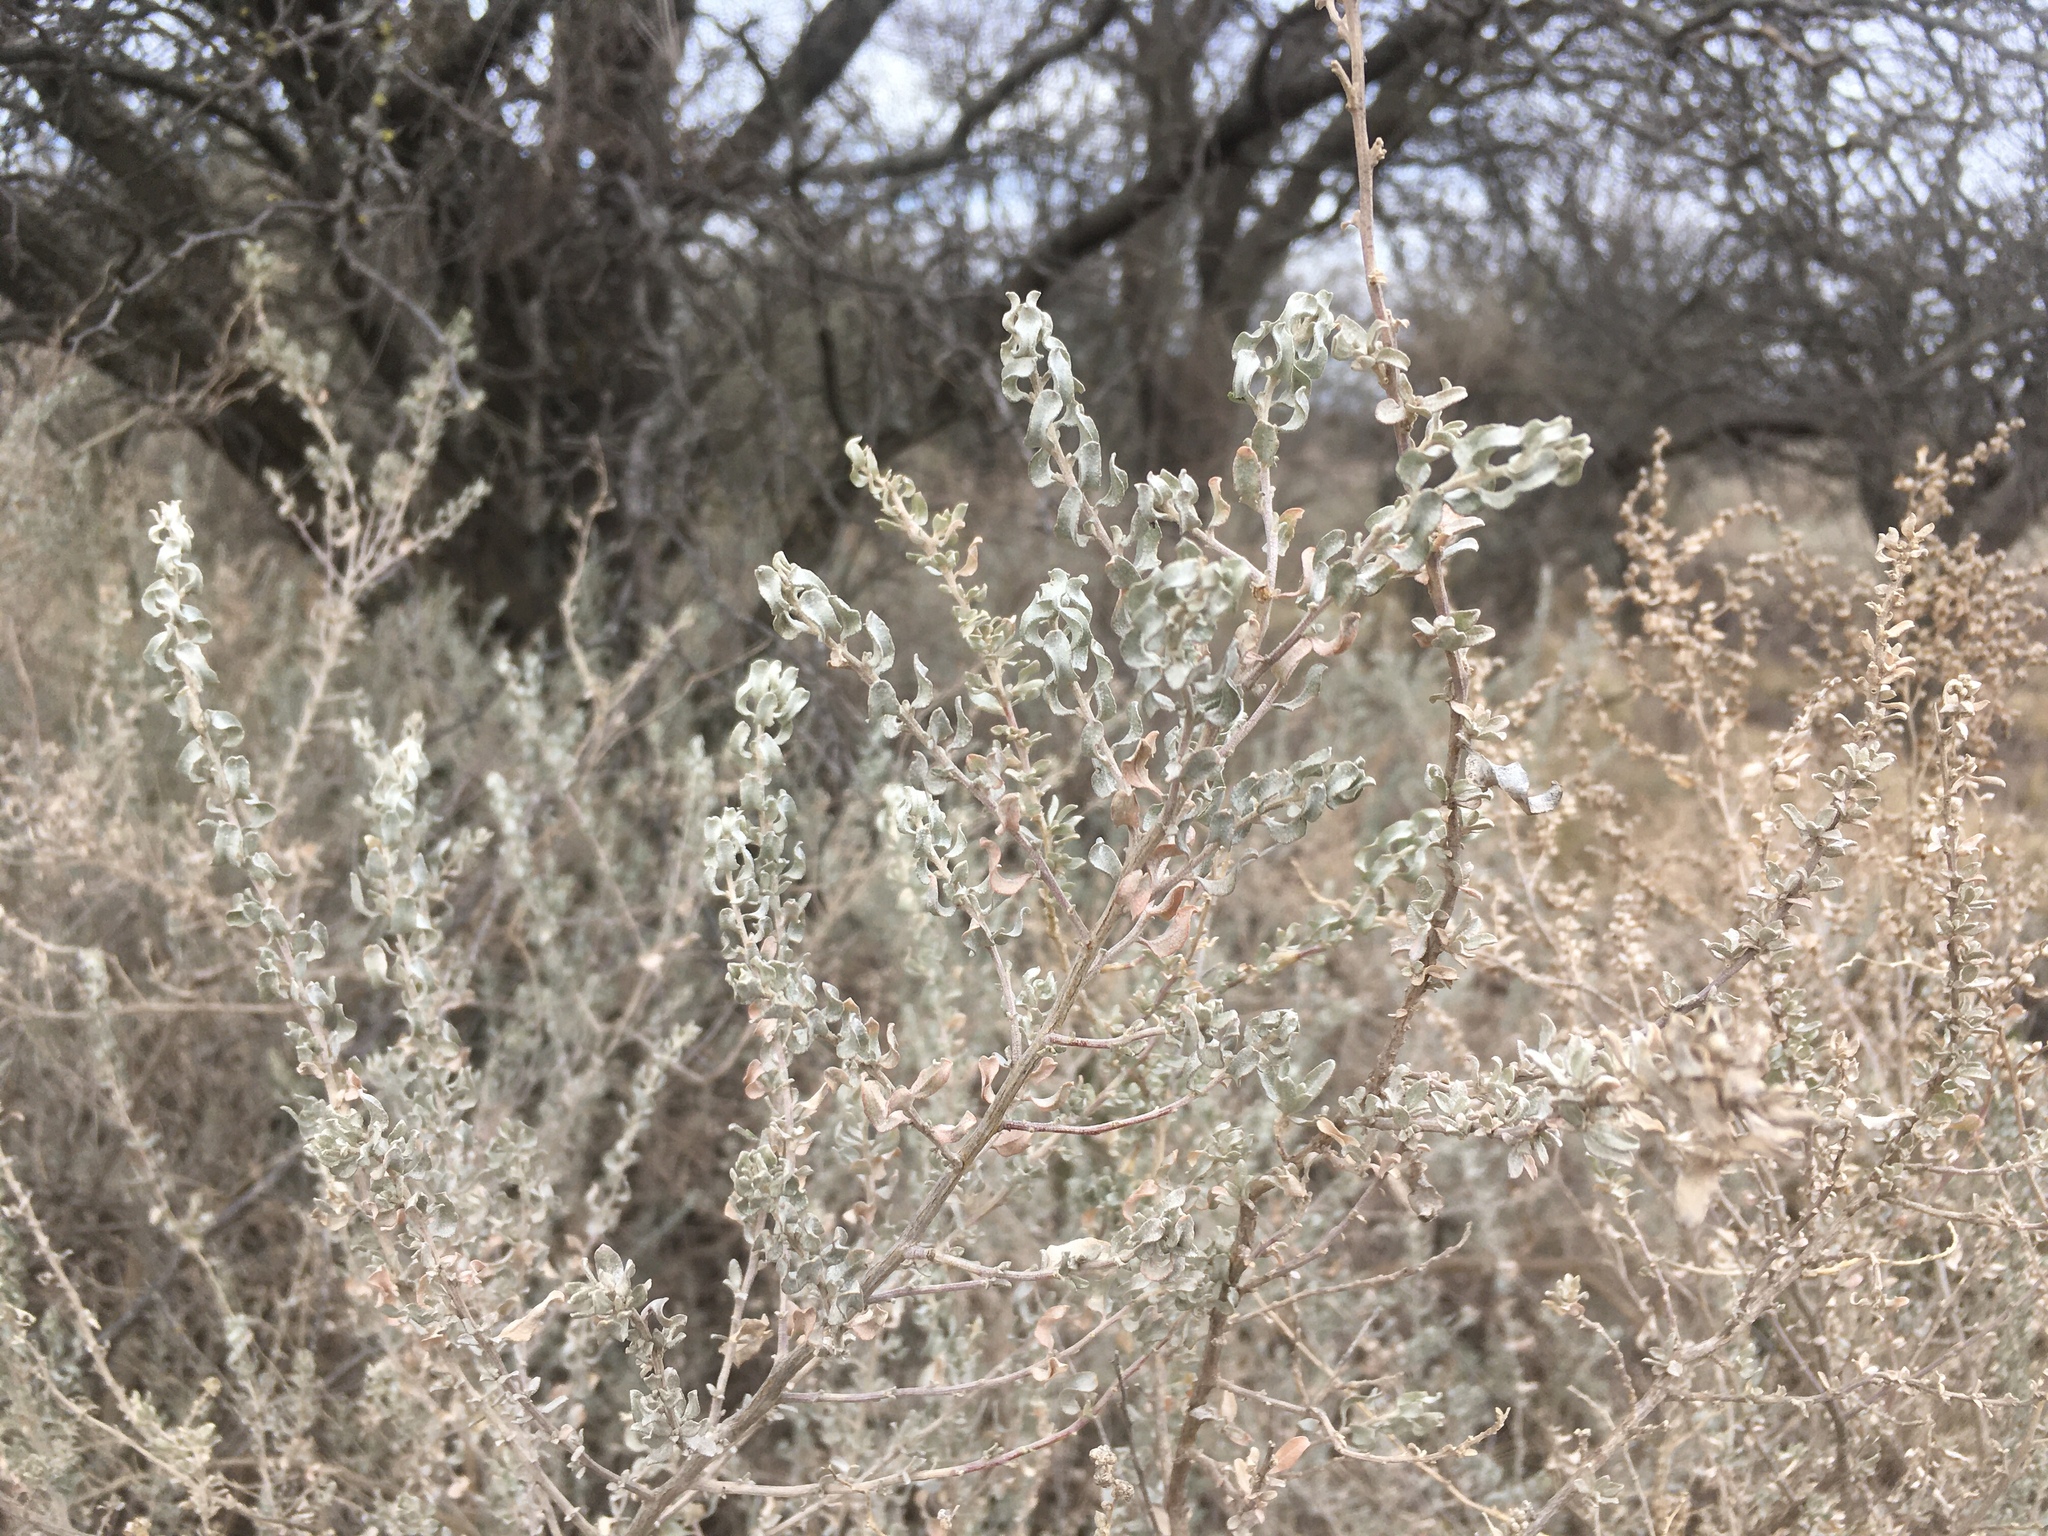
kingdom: Plantae
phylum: Tracheophyta
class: Magnoliopsida
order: Caryophyllales
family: Amaranthaceae
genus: Atriplex
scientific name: Atriplex undulata
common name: Wavy-leaved saltbush
